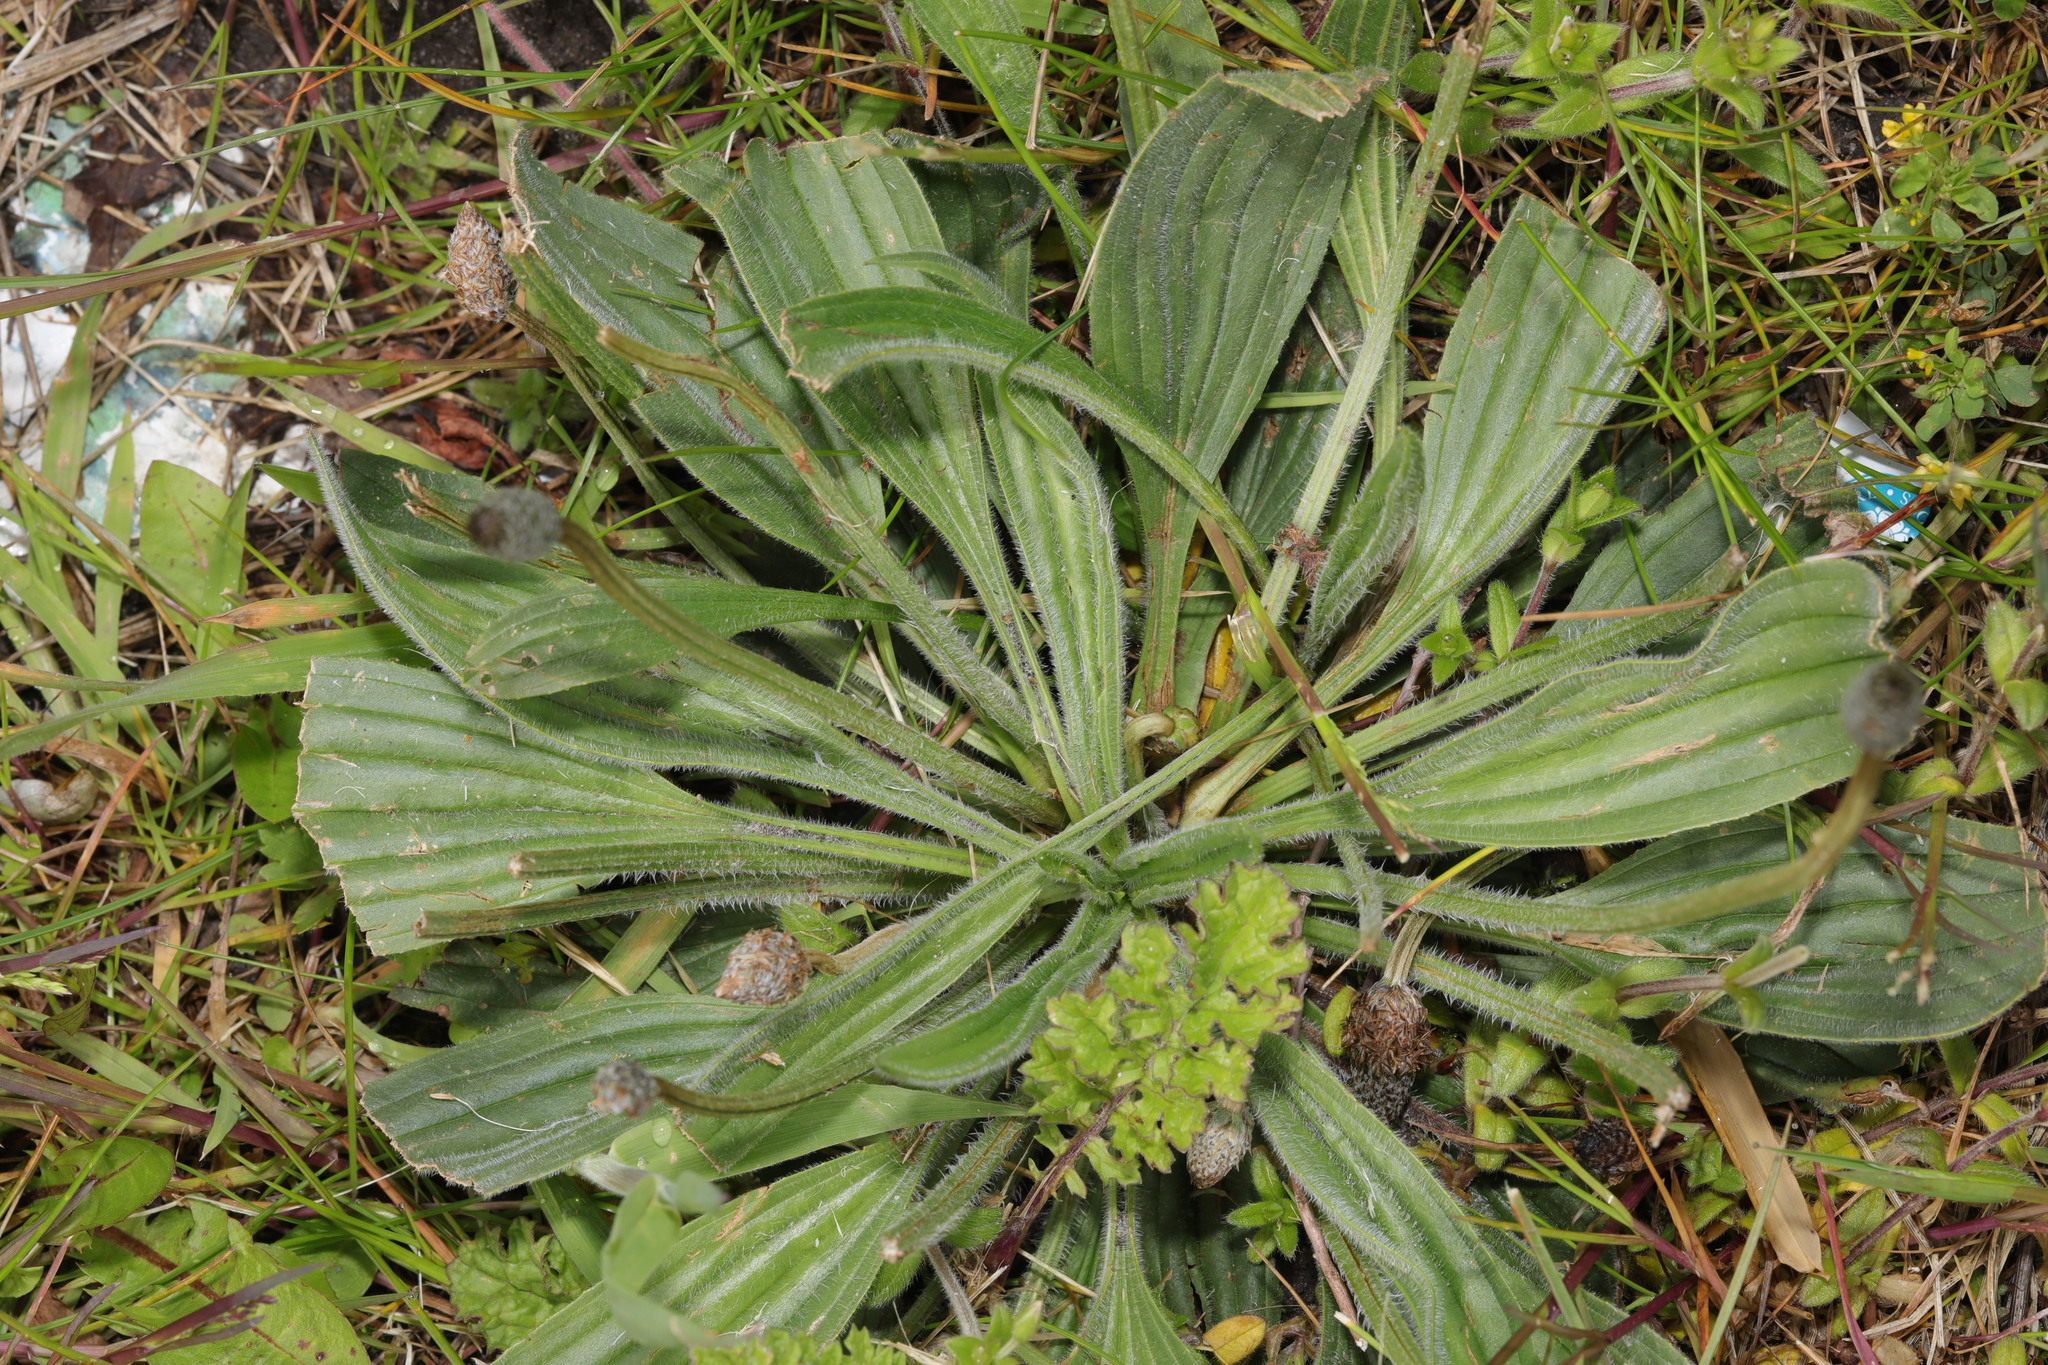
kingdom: Plantae
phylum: Tracheophyta
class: Magnoliopsida
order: Lamiales
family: Plantaginaceae
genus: Plantago
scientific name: Plantago lanceolata
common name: Ribwort plantain
